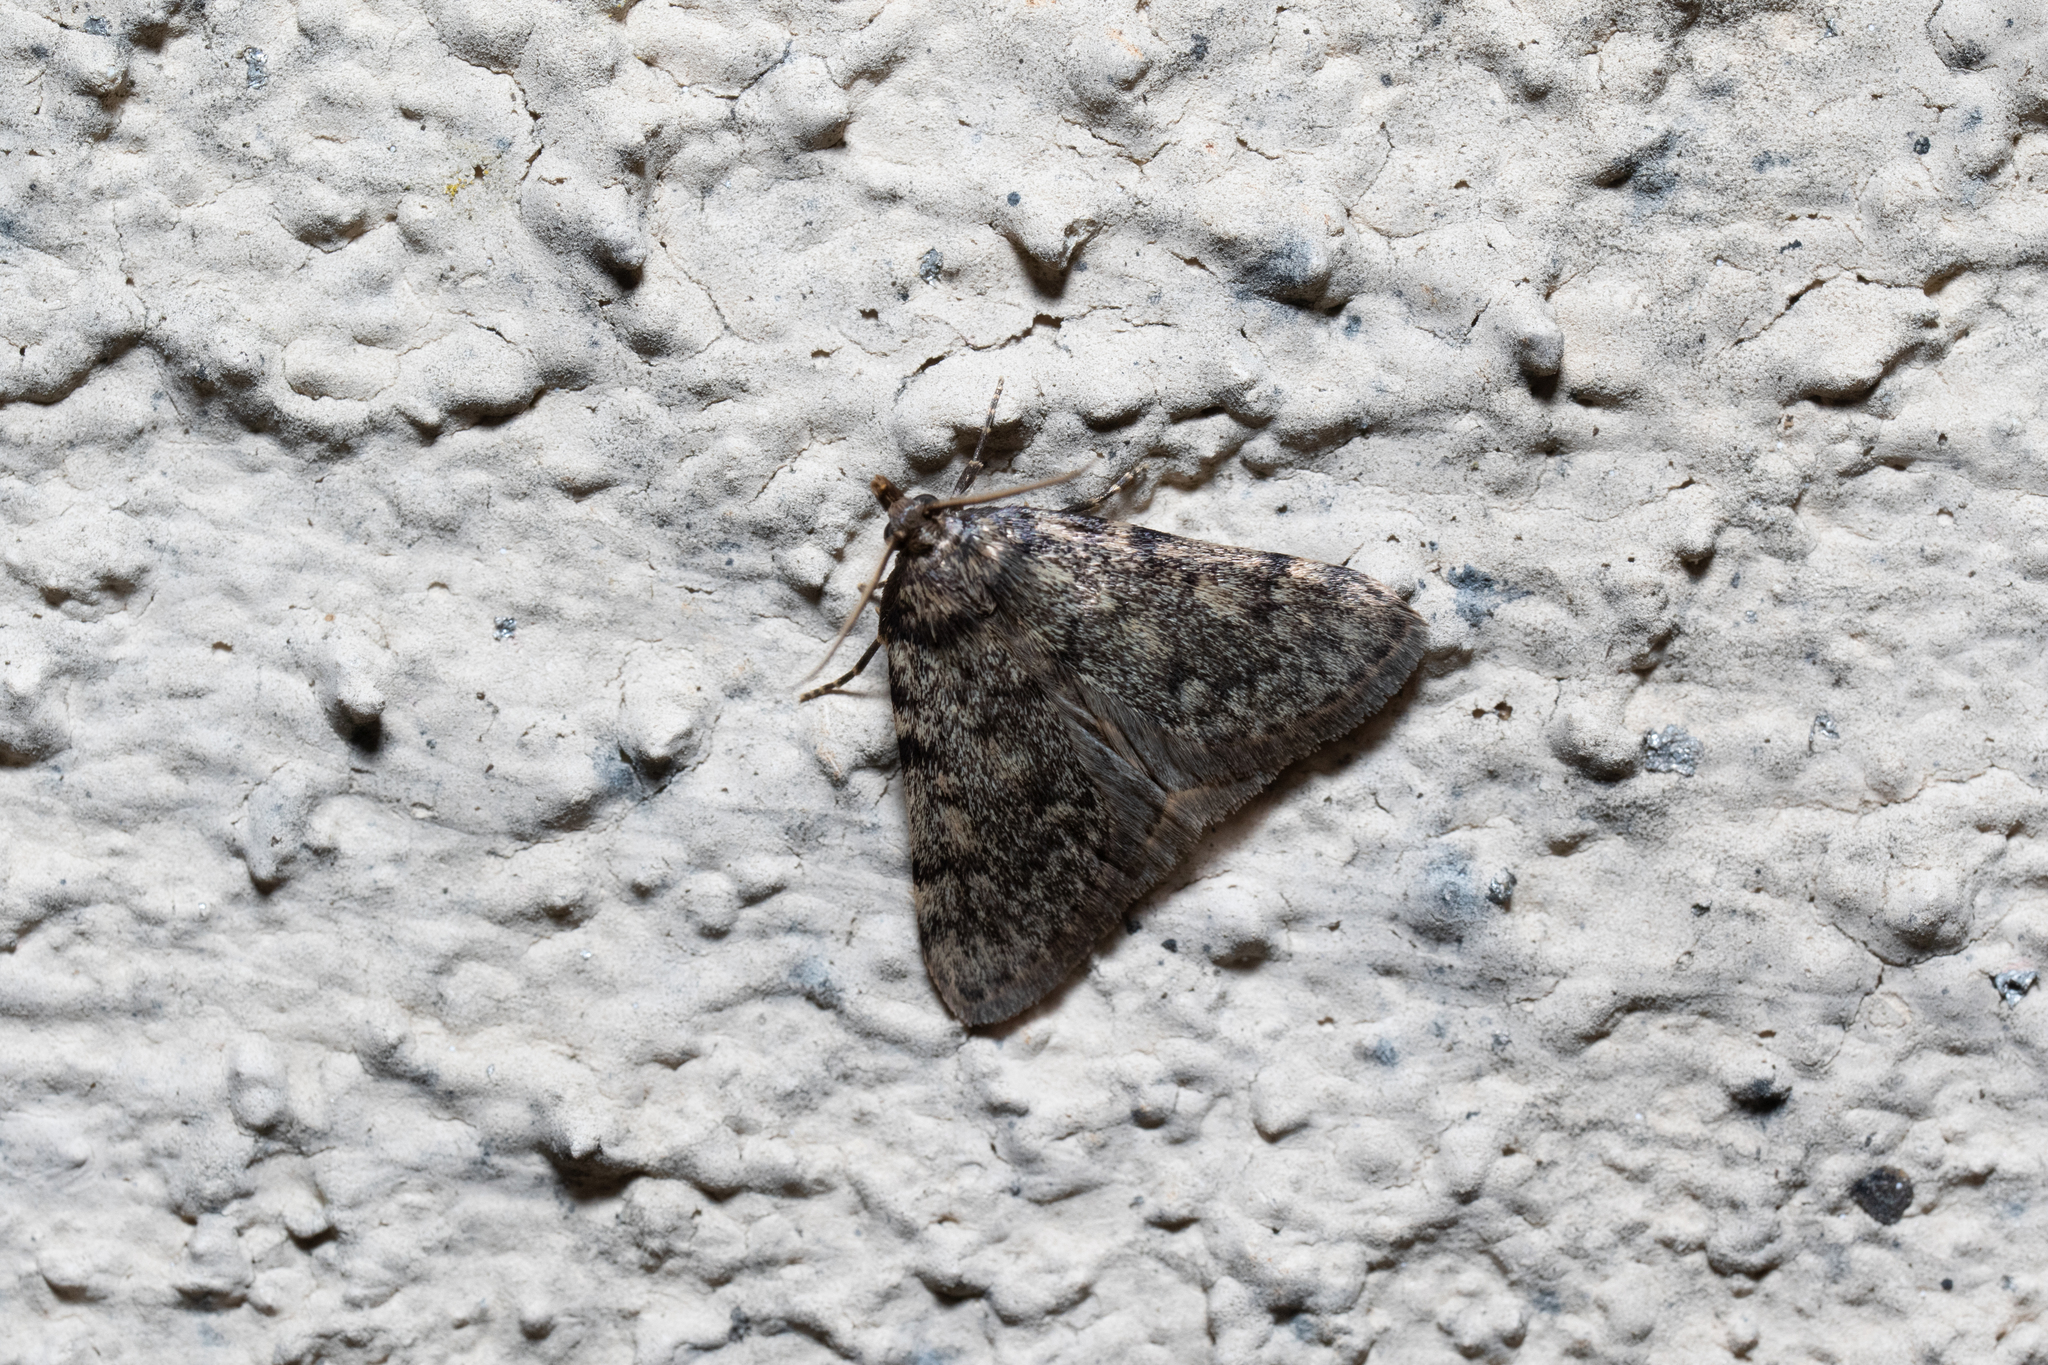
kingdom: Animalia
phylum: Arthropoda
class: Insecta
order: Lepidoptera
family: Pyralidae
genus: Aglossa
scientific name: Aglossa pinguinalis
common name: Large tabby
